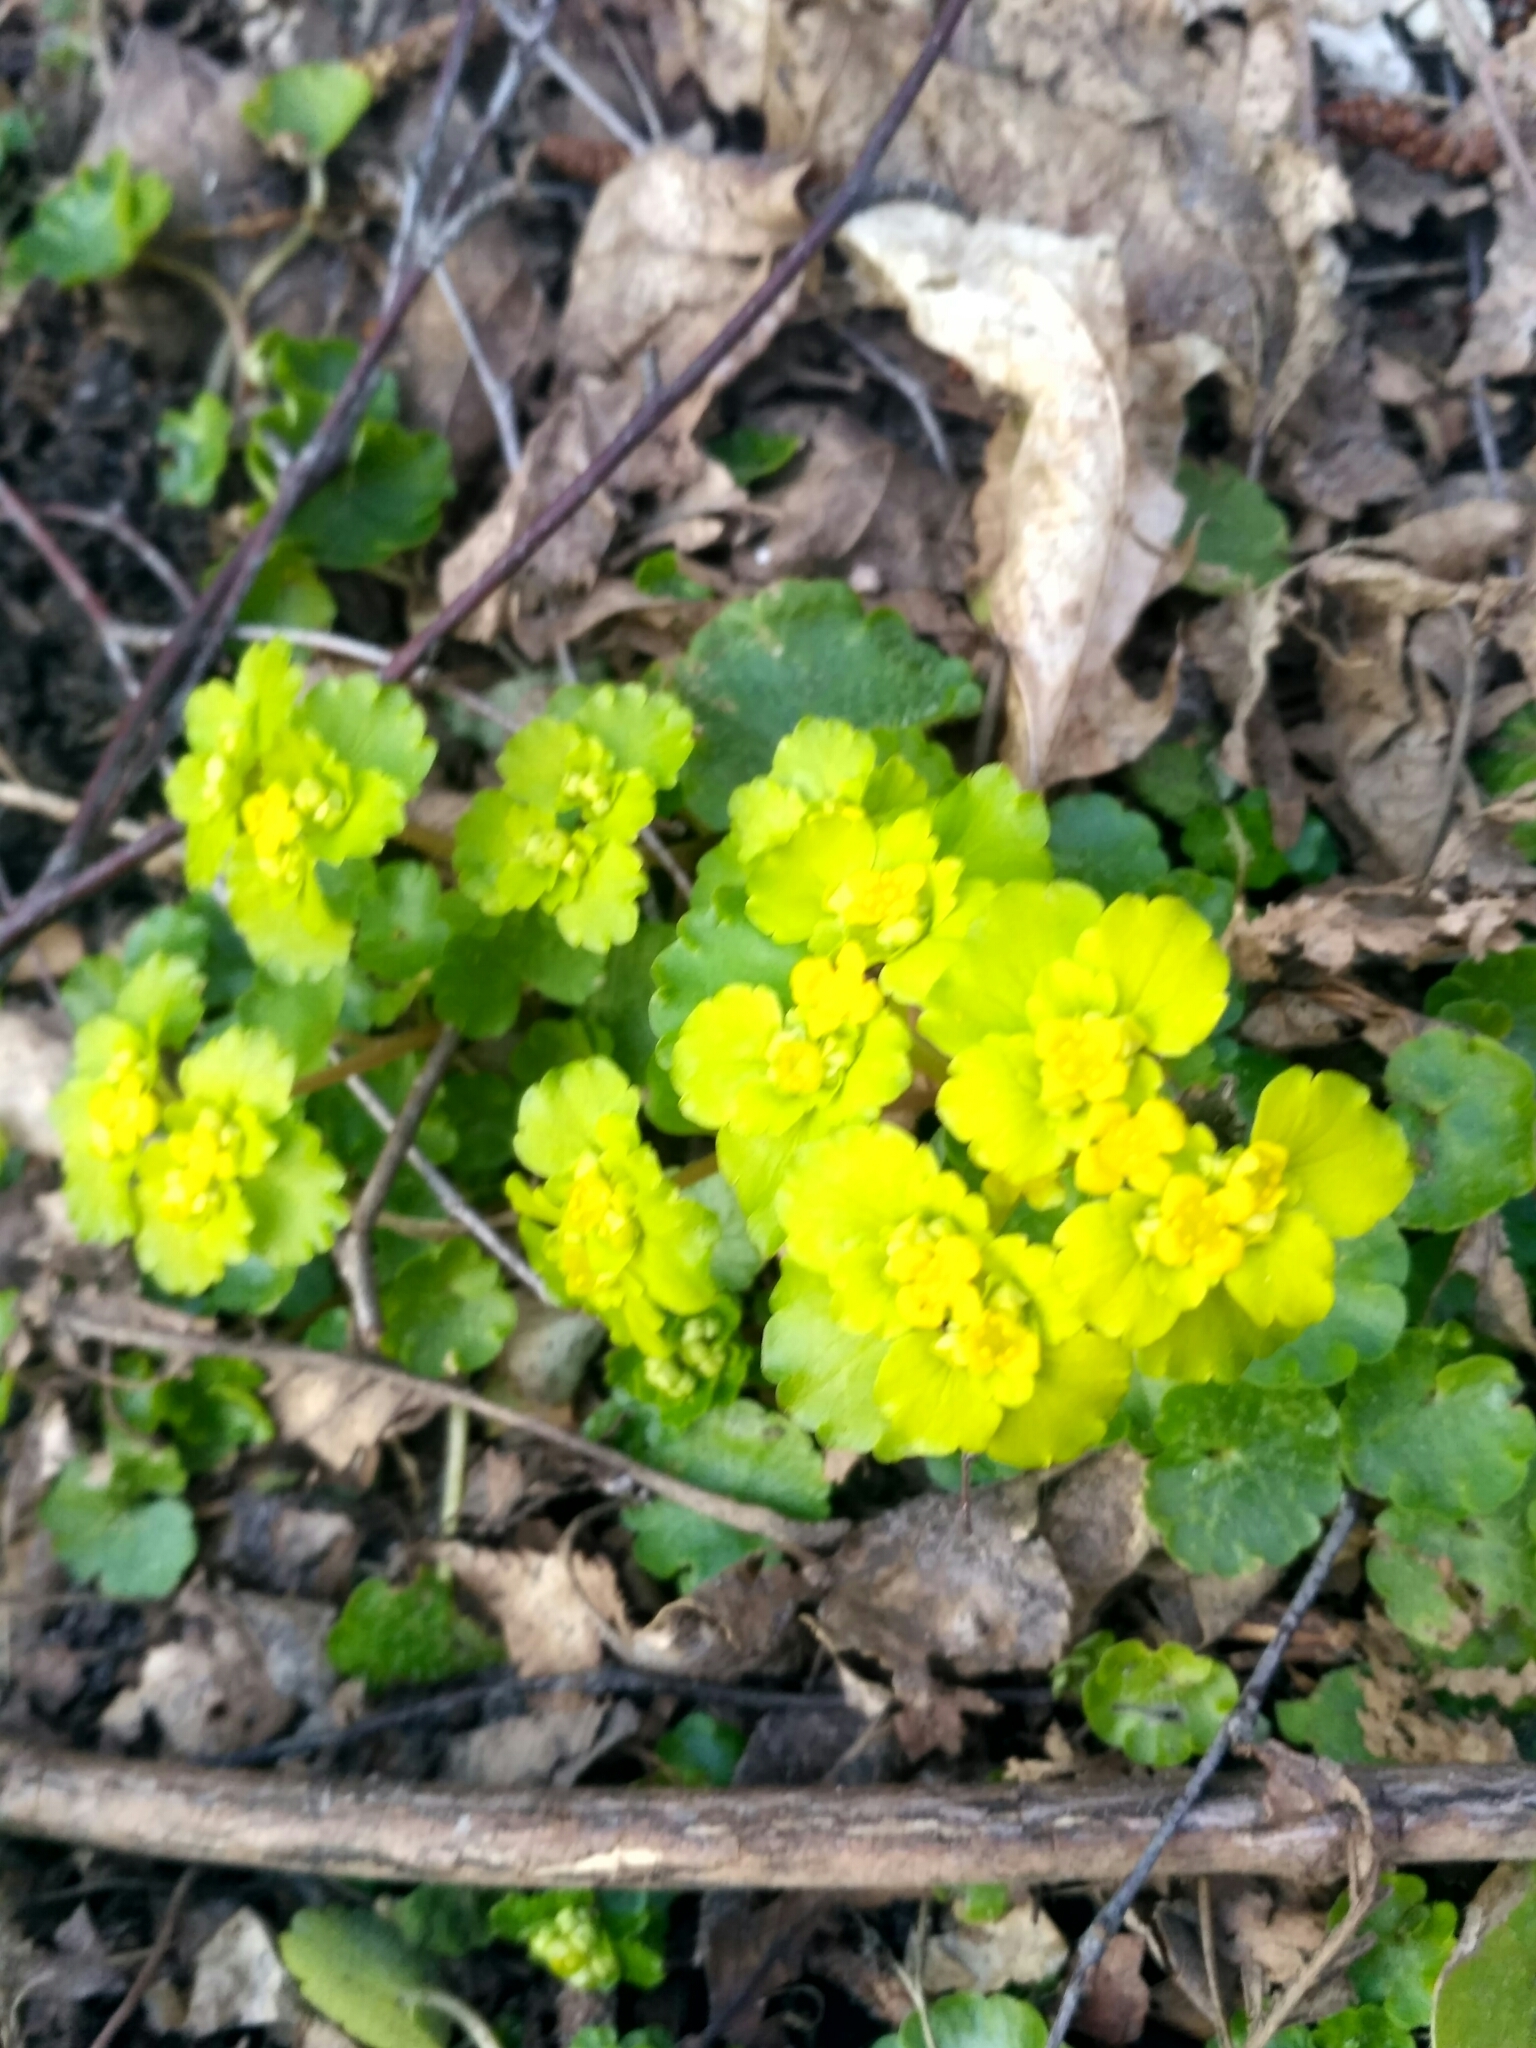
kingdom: Plantae
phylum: Tracheophyta
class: Magnoliopsida
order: Saxifragales
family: Saxifragaceae
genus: Chrysosplenium
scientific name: Chrysosplenium alternifolium
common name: Alternate-leaved golden-saxifrage
